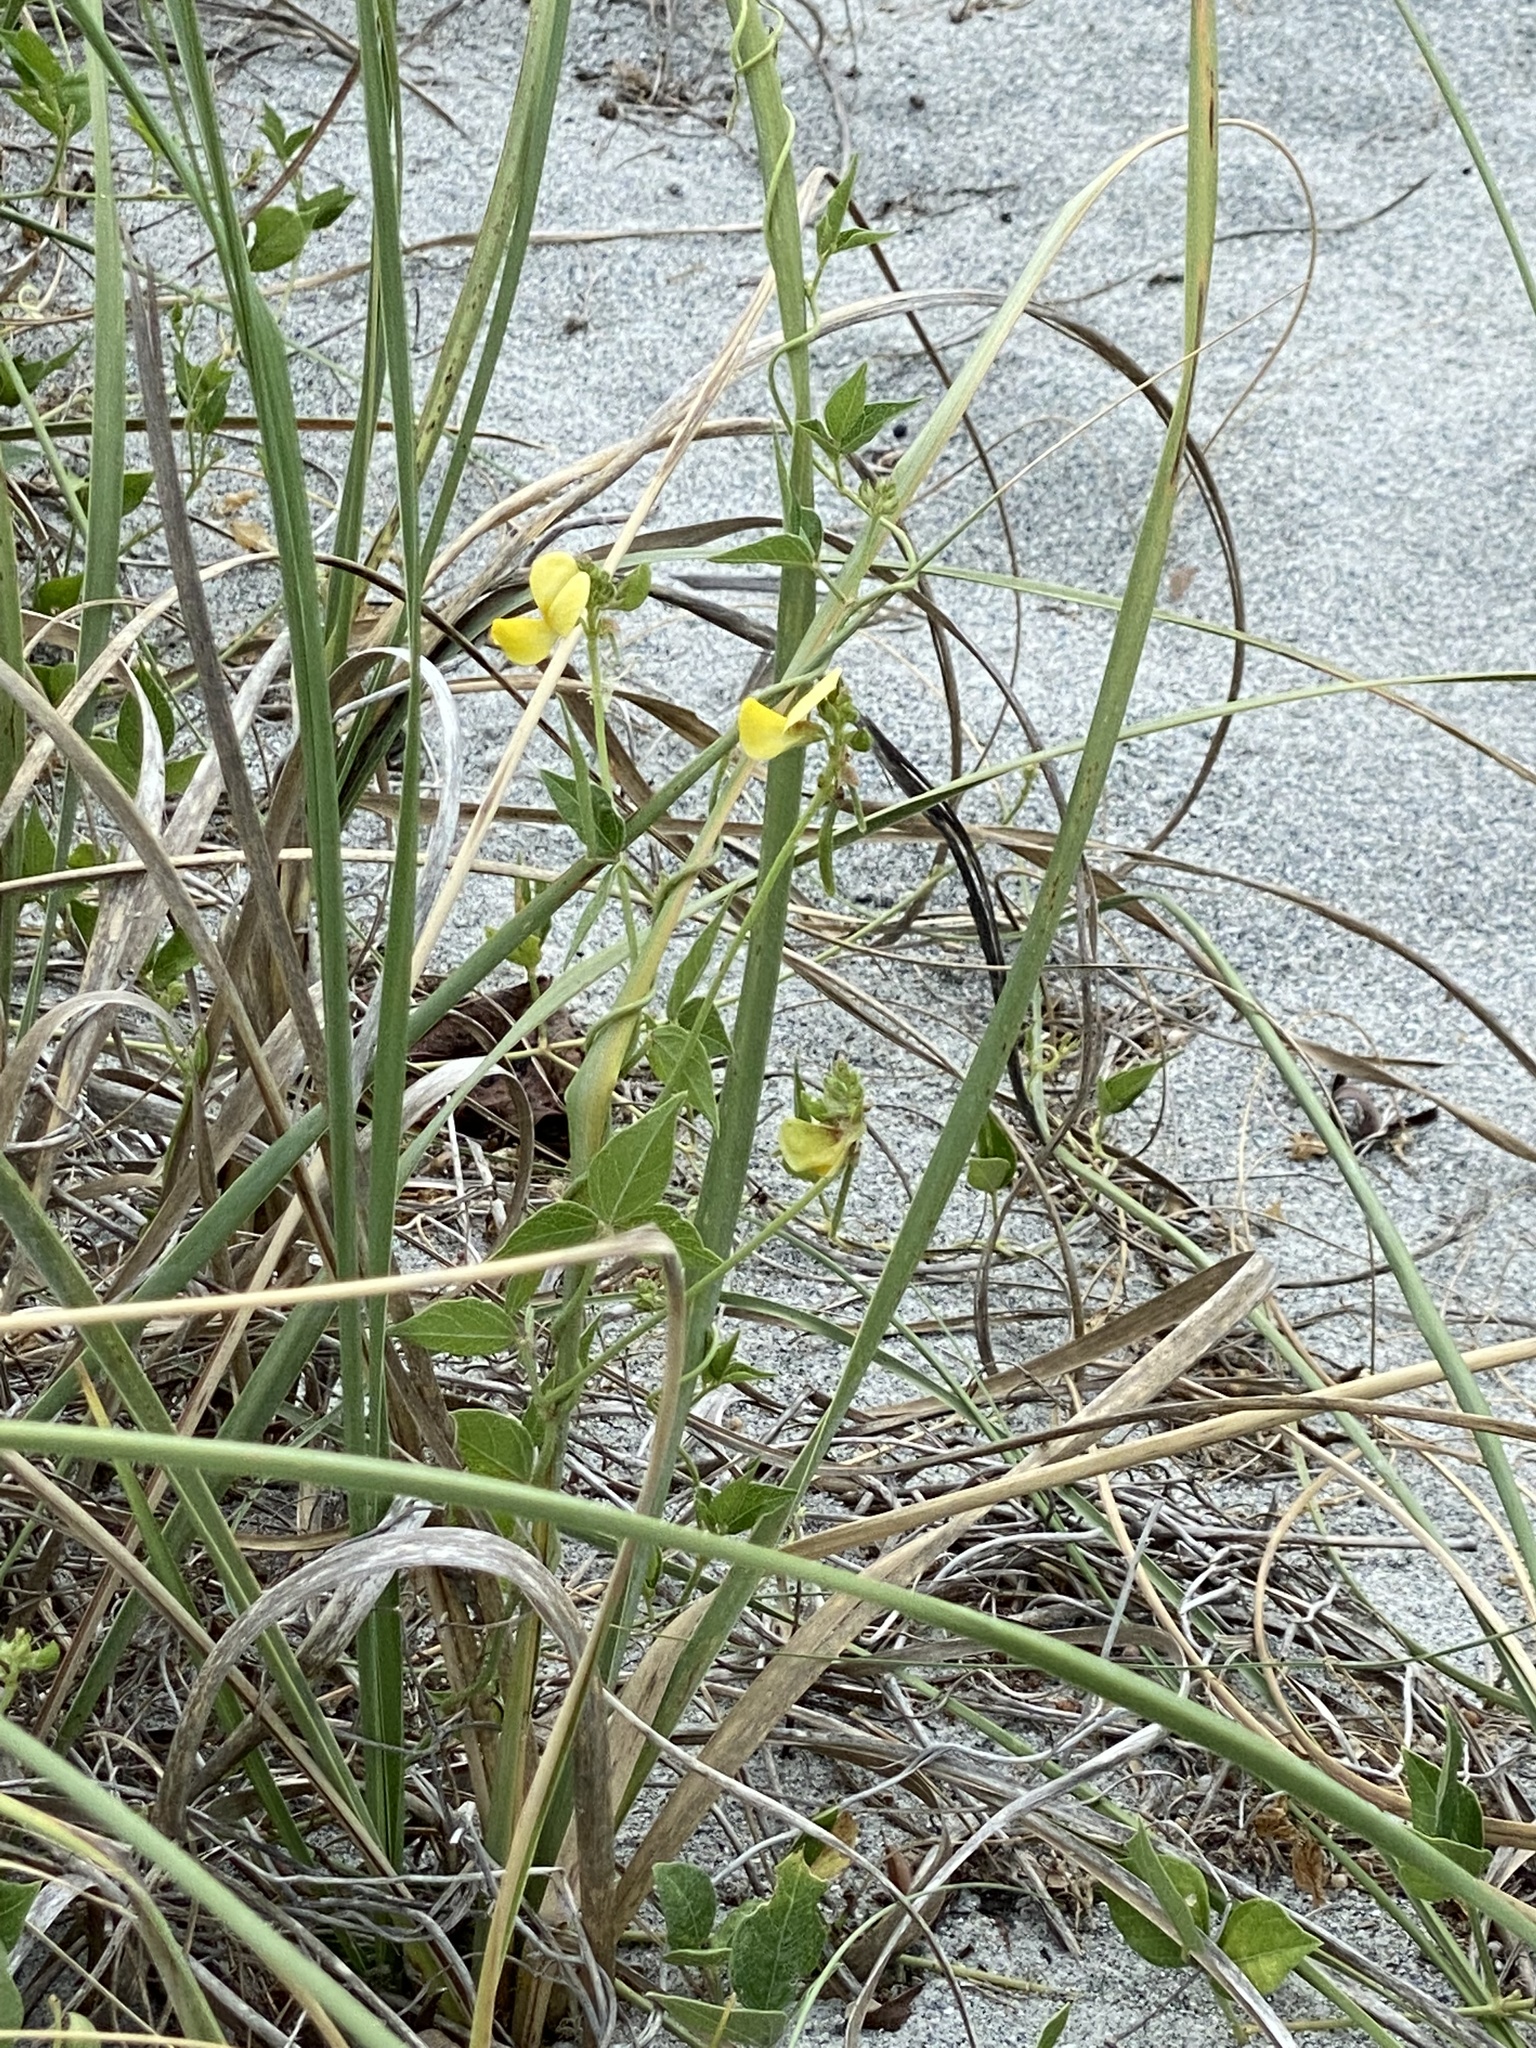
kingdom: Plantae
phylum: Tracheophyta
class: Magnoliopsida
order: Fabales
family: Fabaceae
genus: Vigna
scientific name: Vigna luteola
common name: Hairypod cowpea
